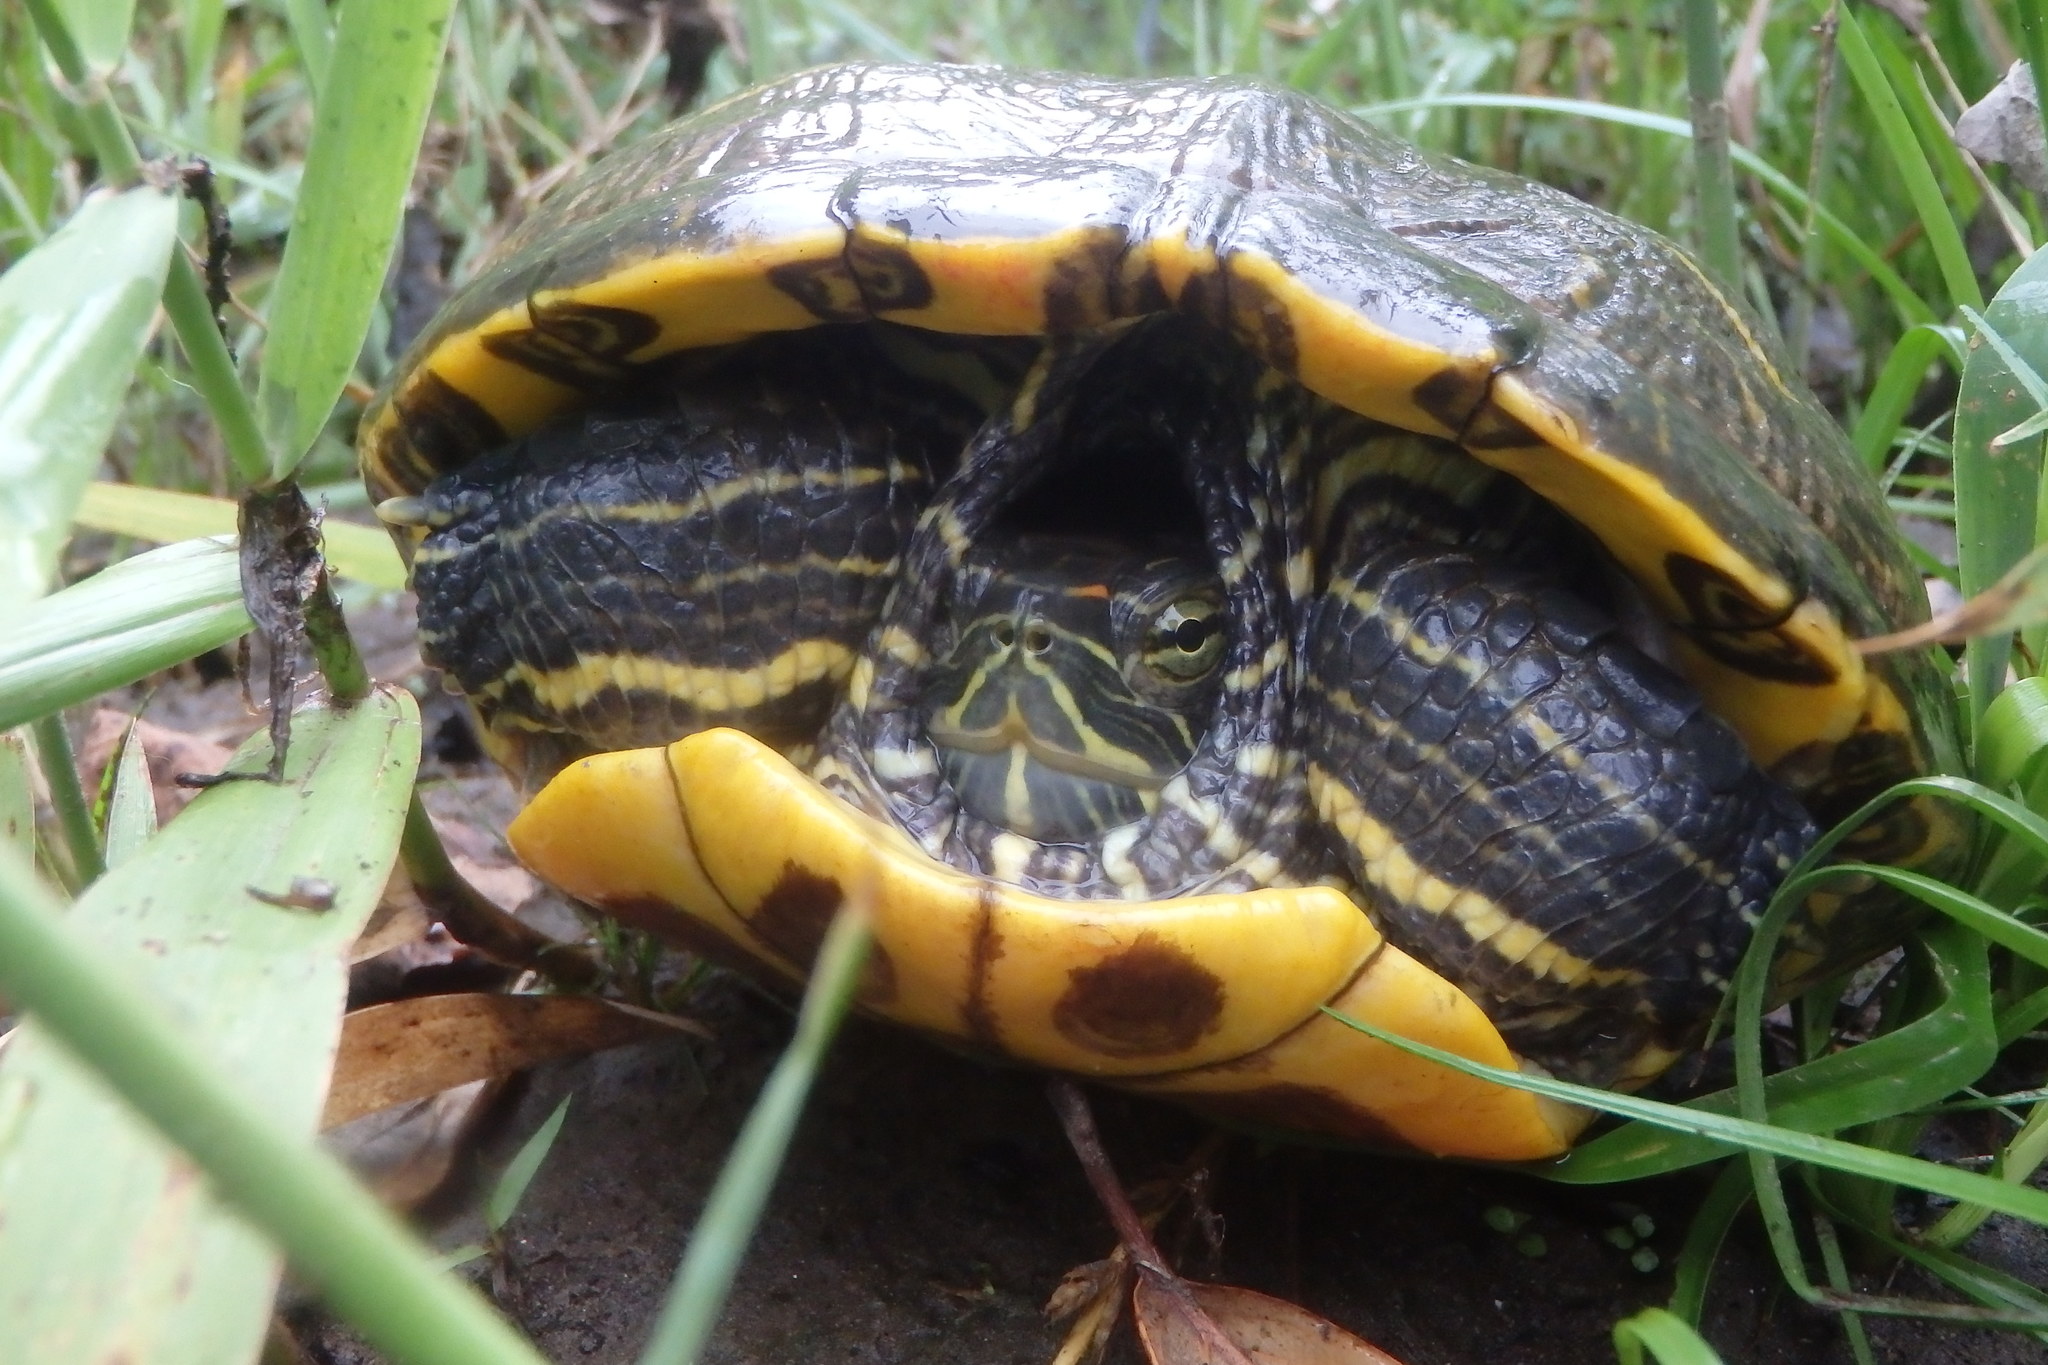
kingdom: Animalia
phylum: Chordata
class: Testudines
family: Emydidae
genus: Trachemys
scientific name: Trachemys scripta
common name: Slider
